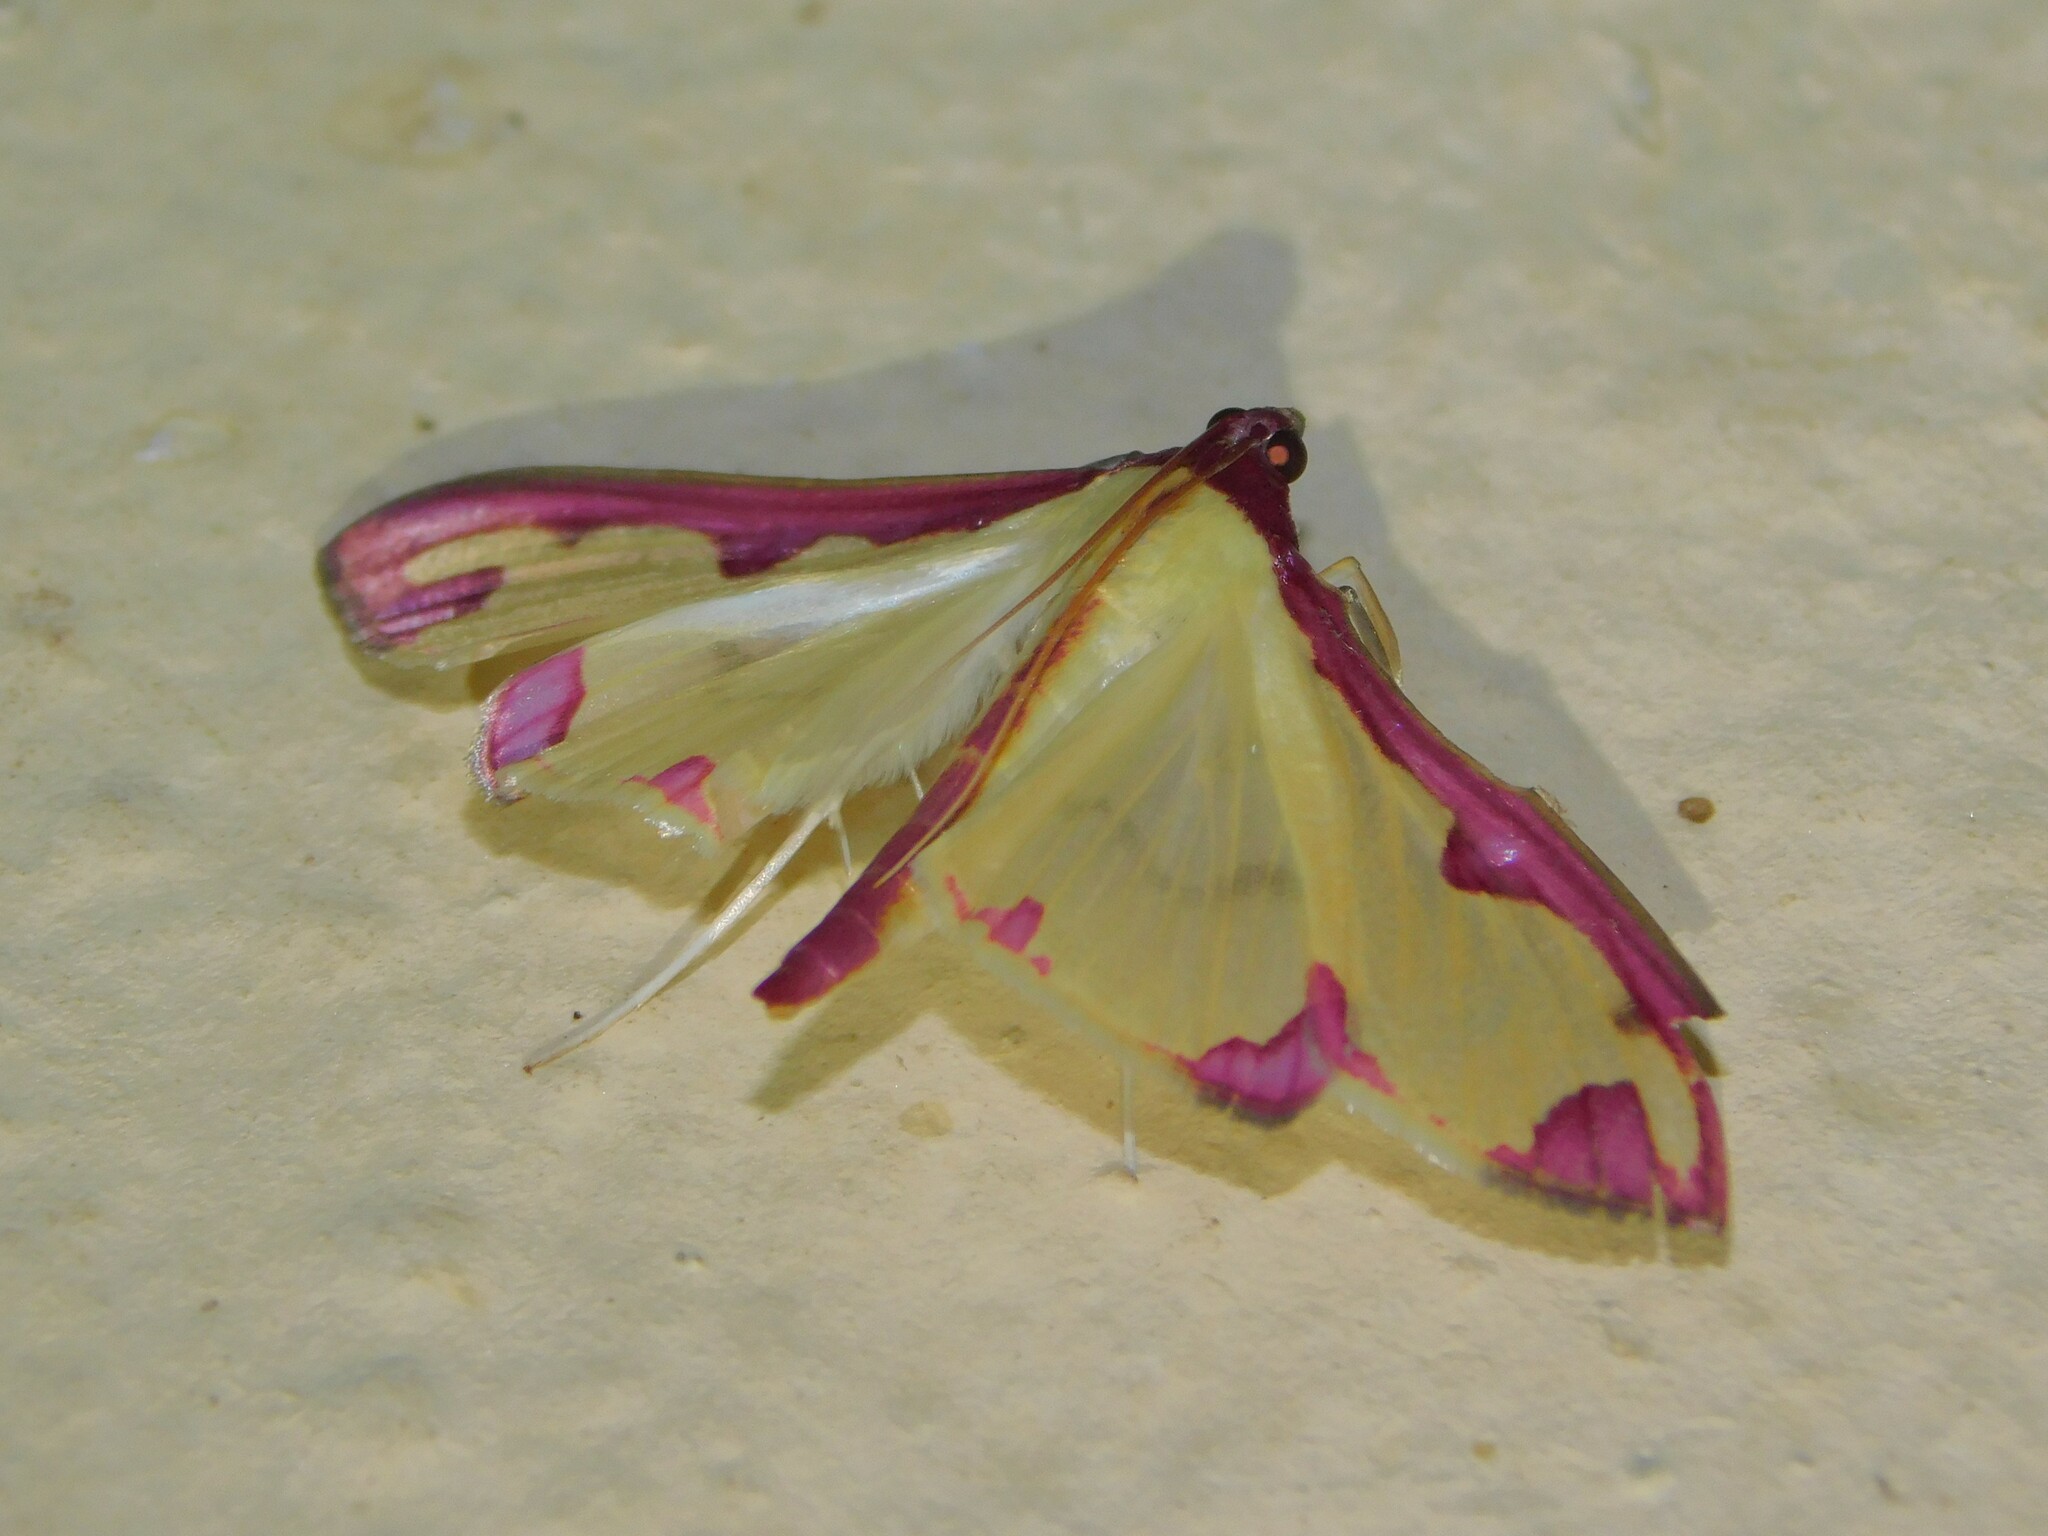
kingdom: Animalia
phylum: Arthropoda
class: Insecta
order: Lepidoptera
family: Crambidae
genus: Cadarena
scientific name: Cadarena pudoraria
